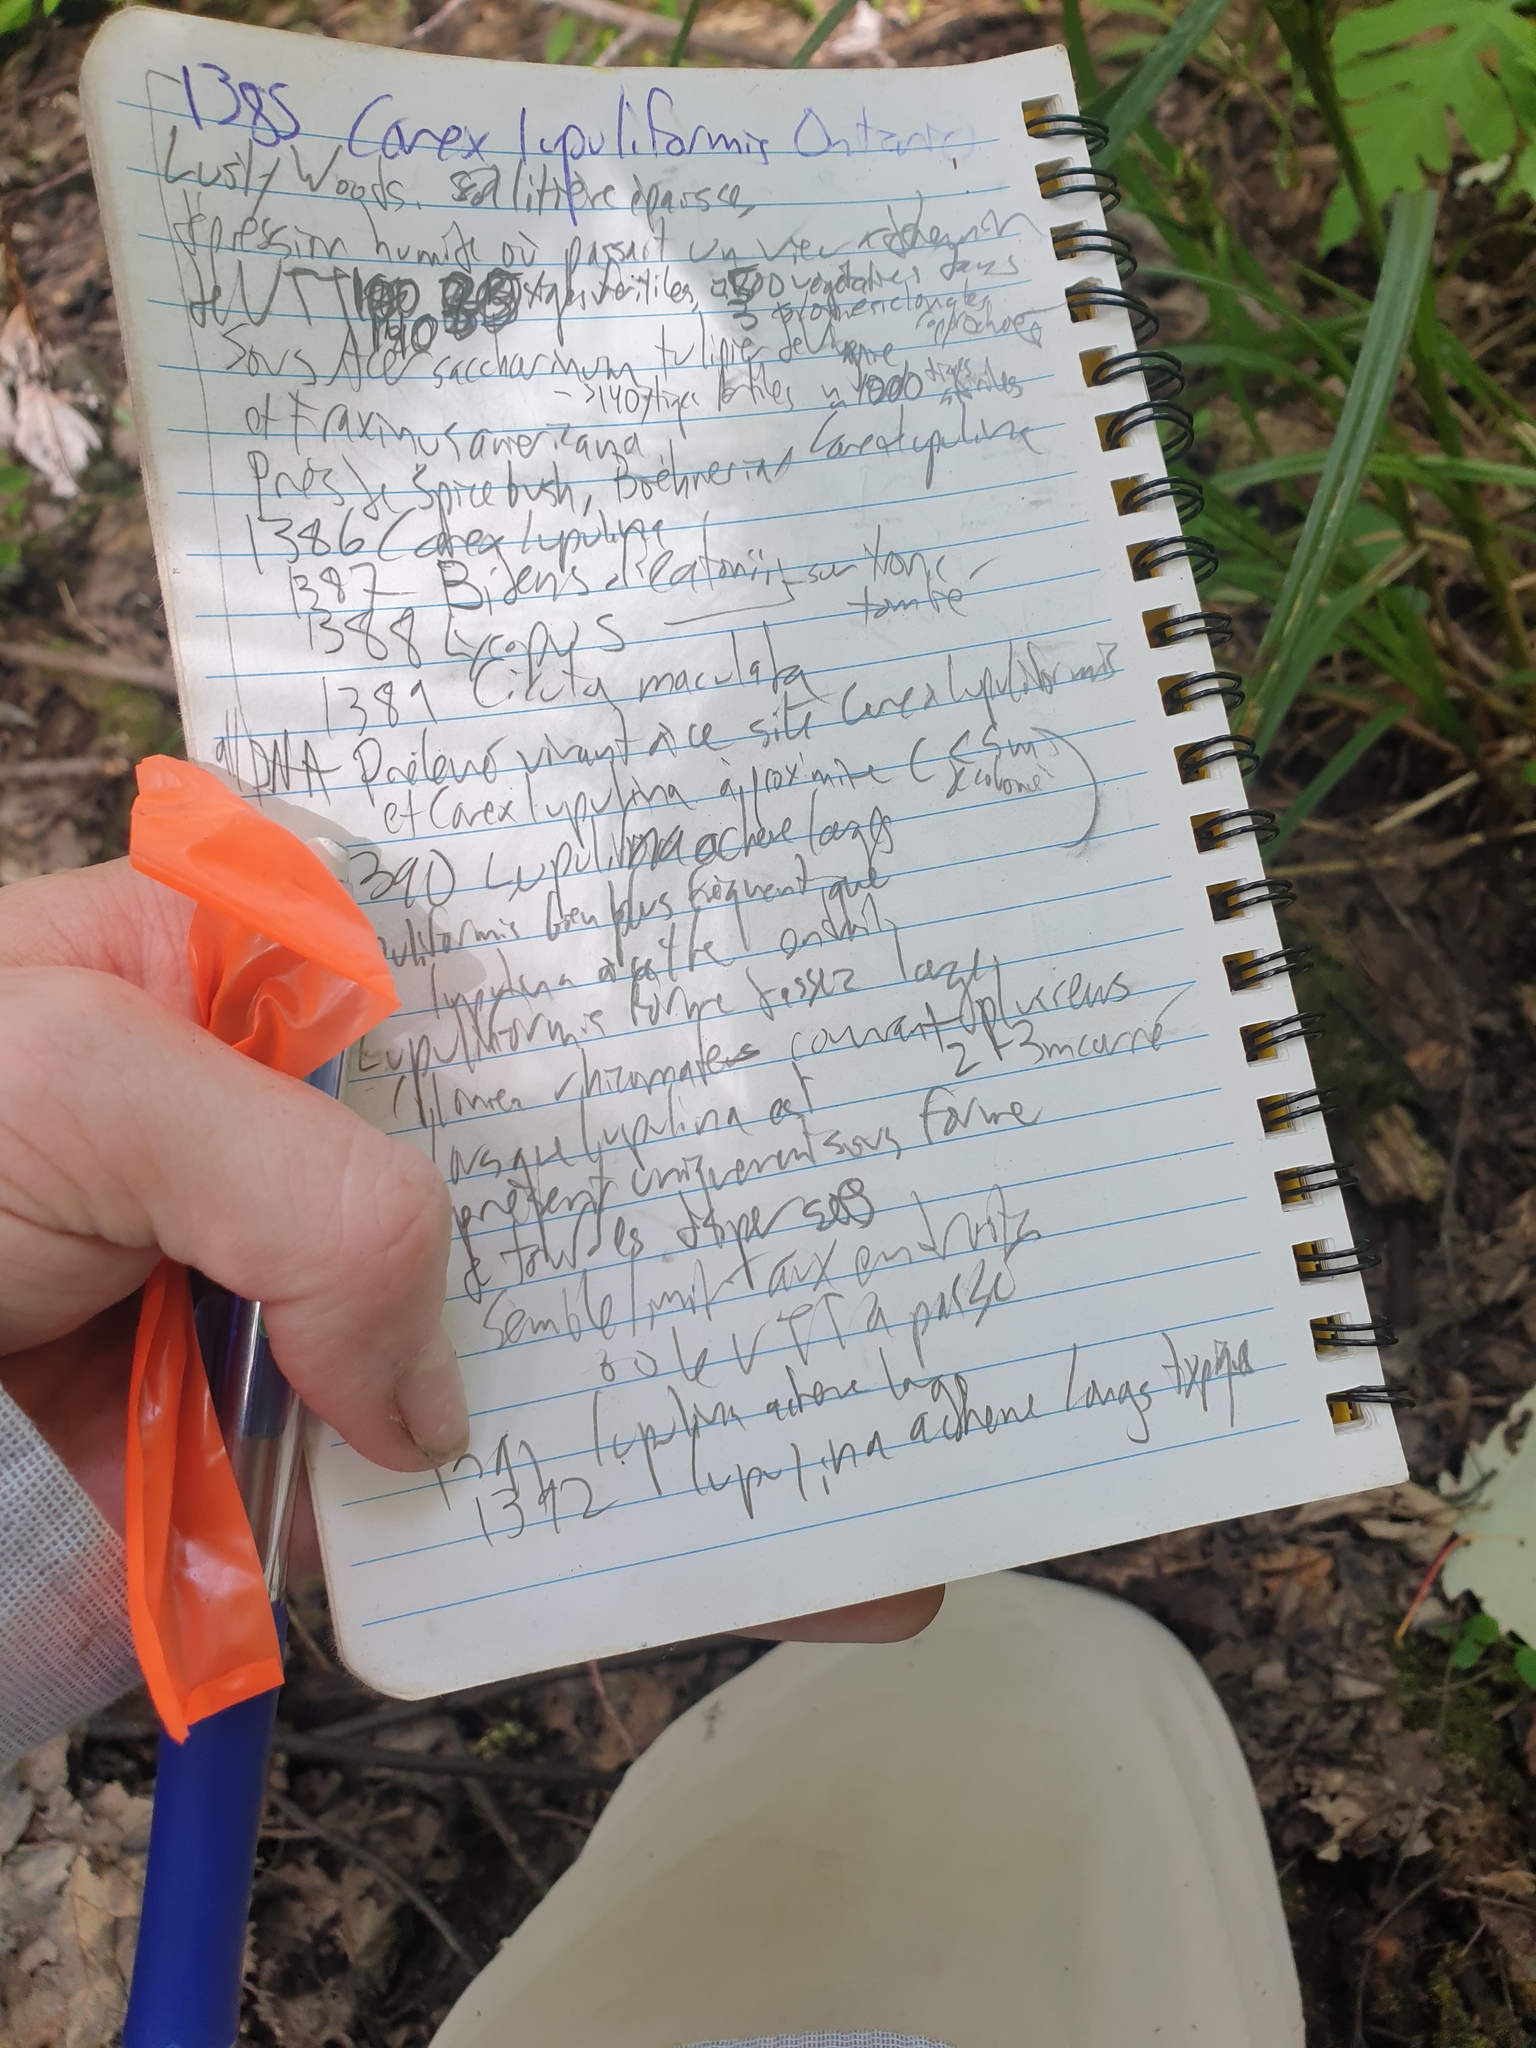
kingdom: Plantae
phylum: Tracheophyta
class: Liliopsida
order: Poales
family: Cyperaceae
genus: Carex
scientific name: Carex lupulina
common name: Hop sedge
